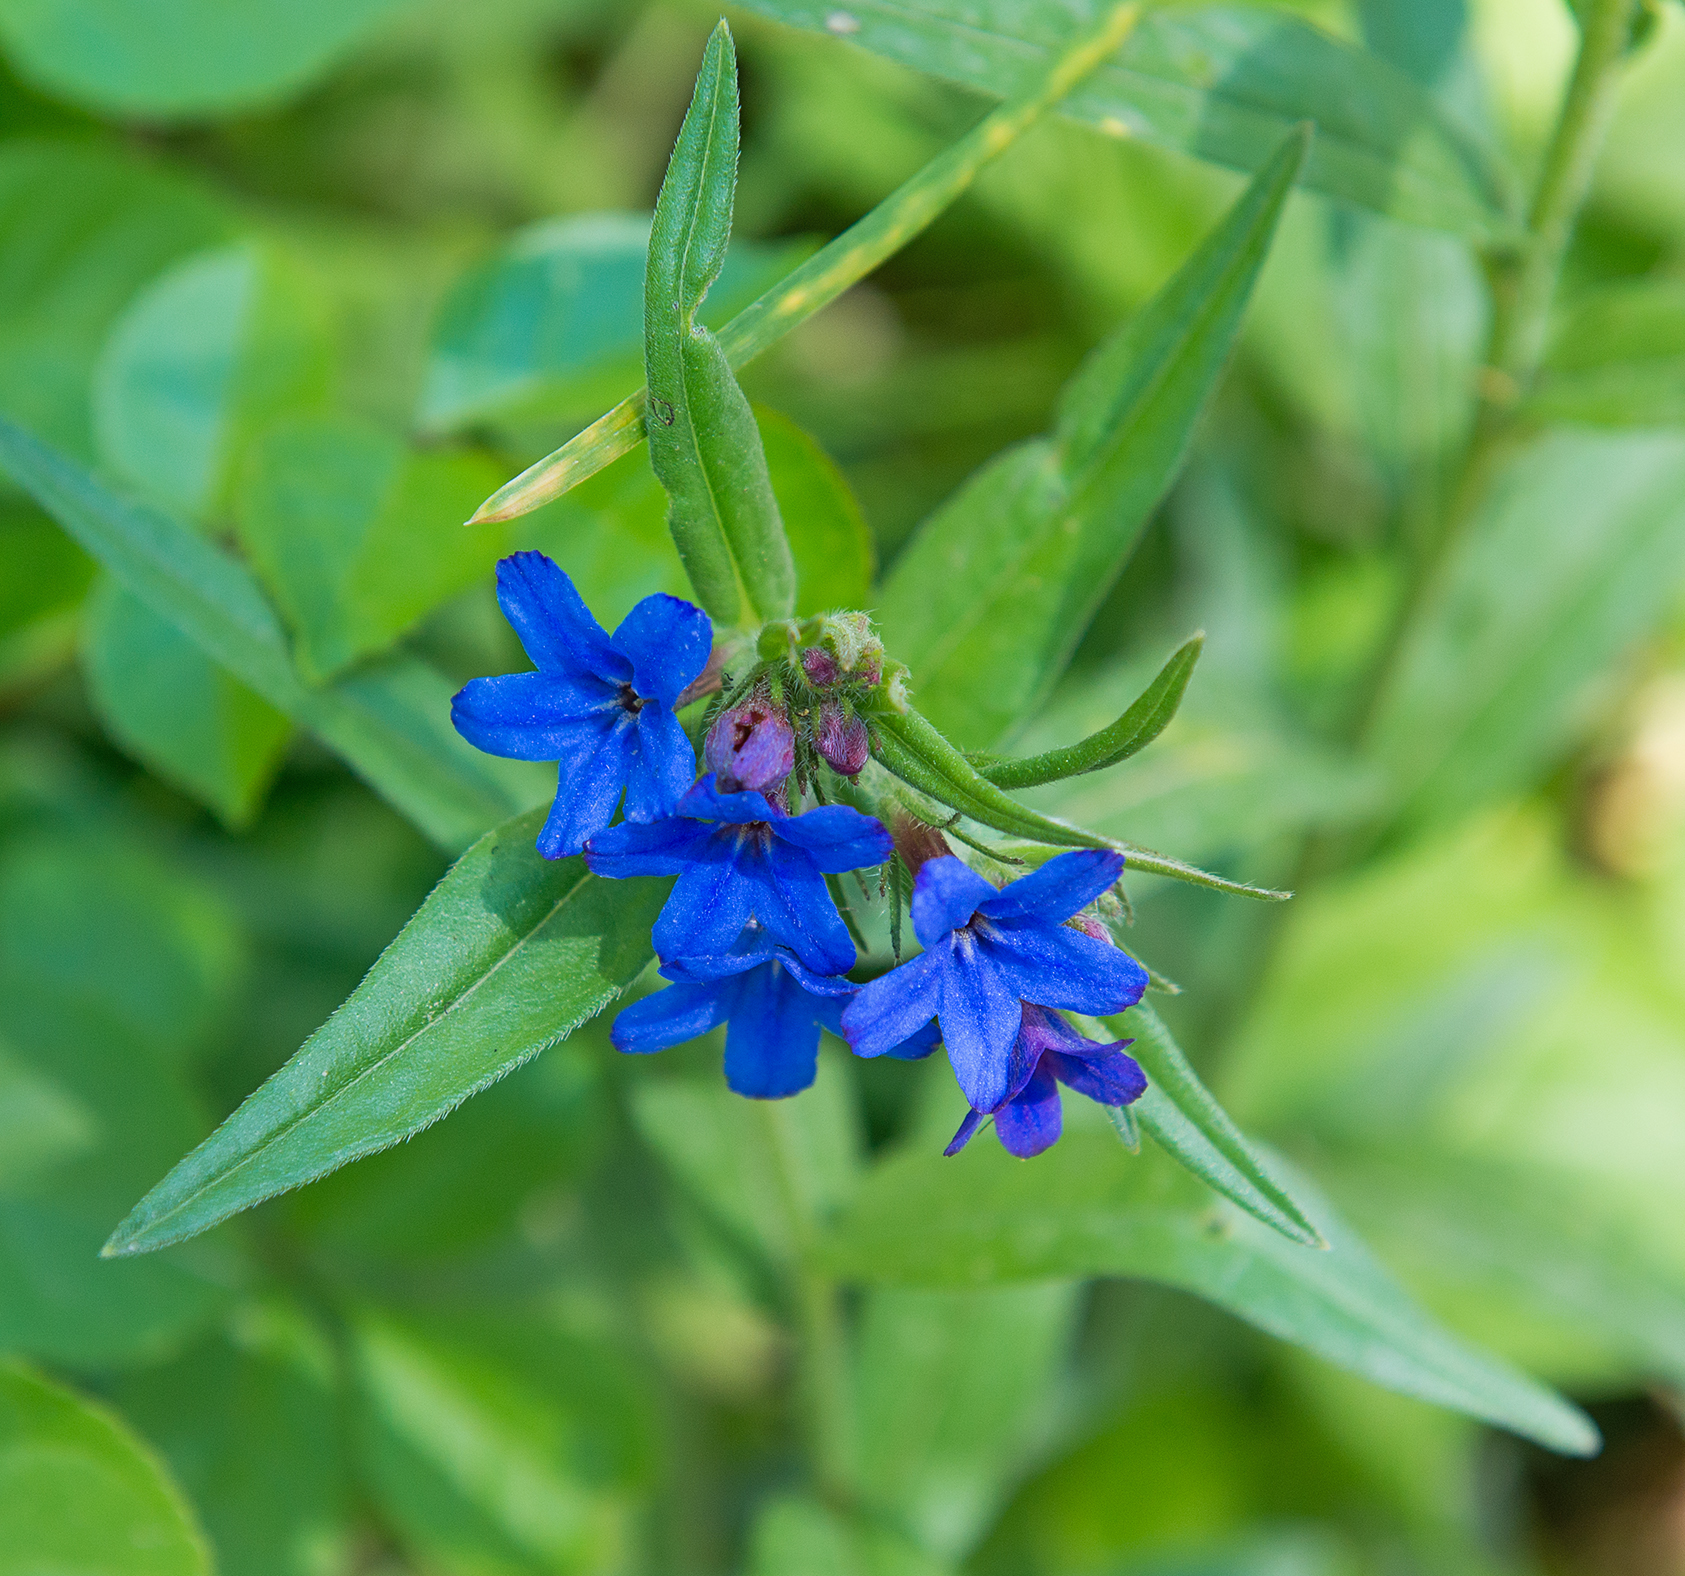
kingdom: Plantae
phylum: Tracheophyta
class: Magnoliopsida
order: Boraginales
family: Boraginaceae
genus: Aegonychon
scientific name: Aegonychon purpurocaeruleum
